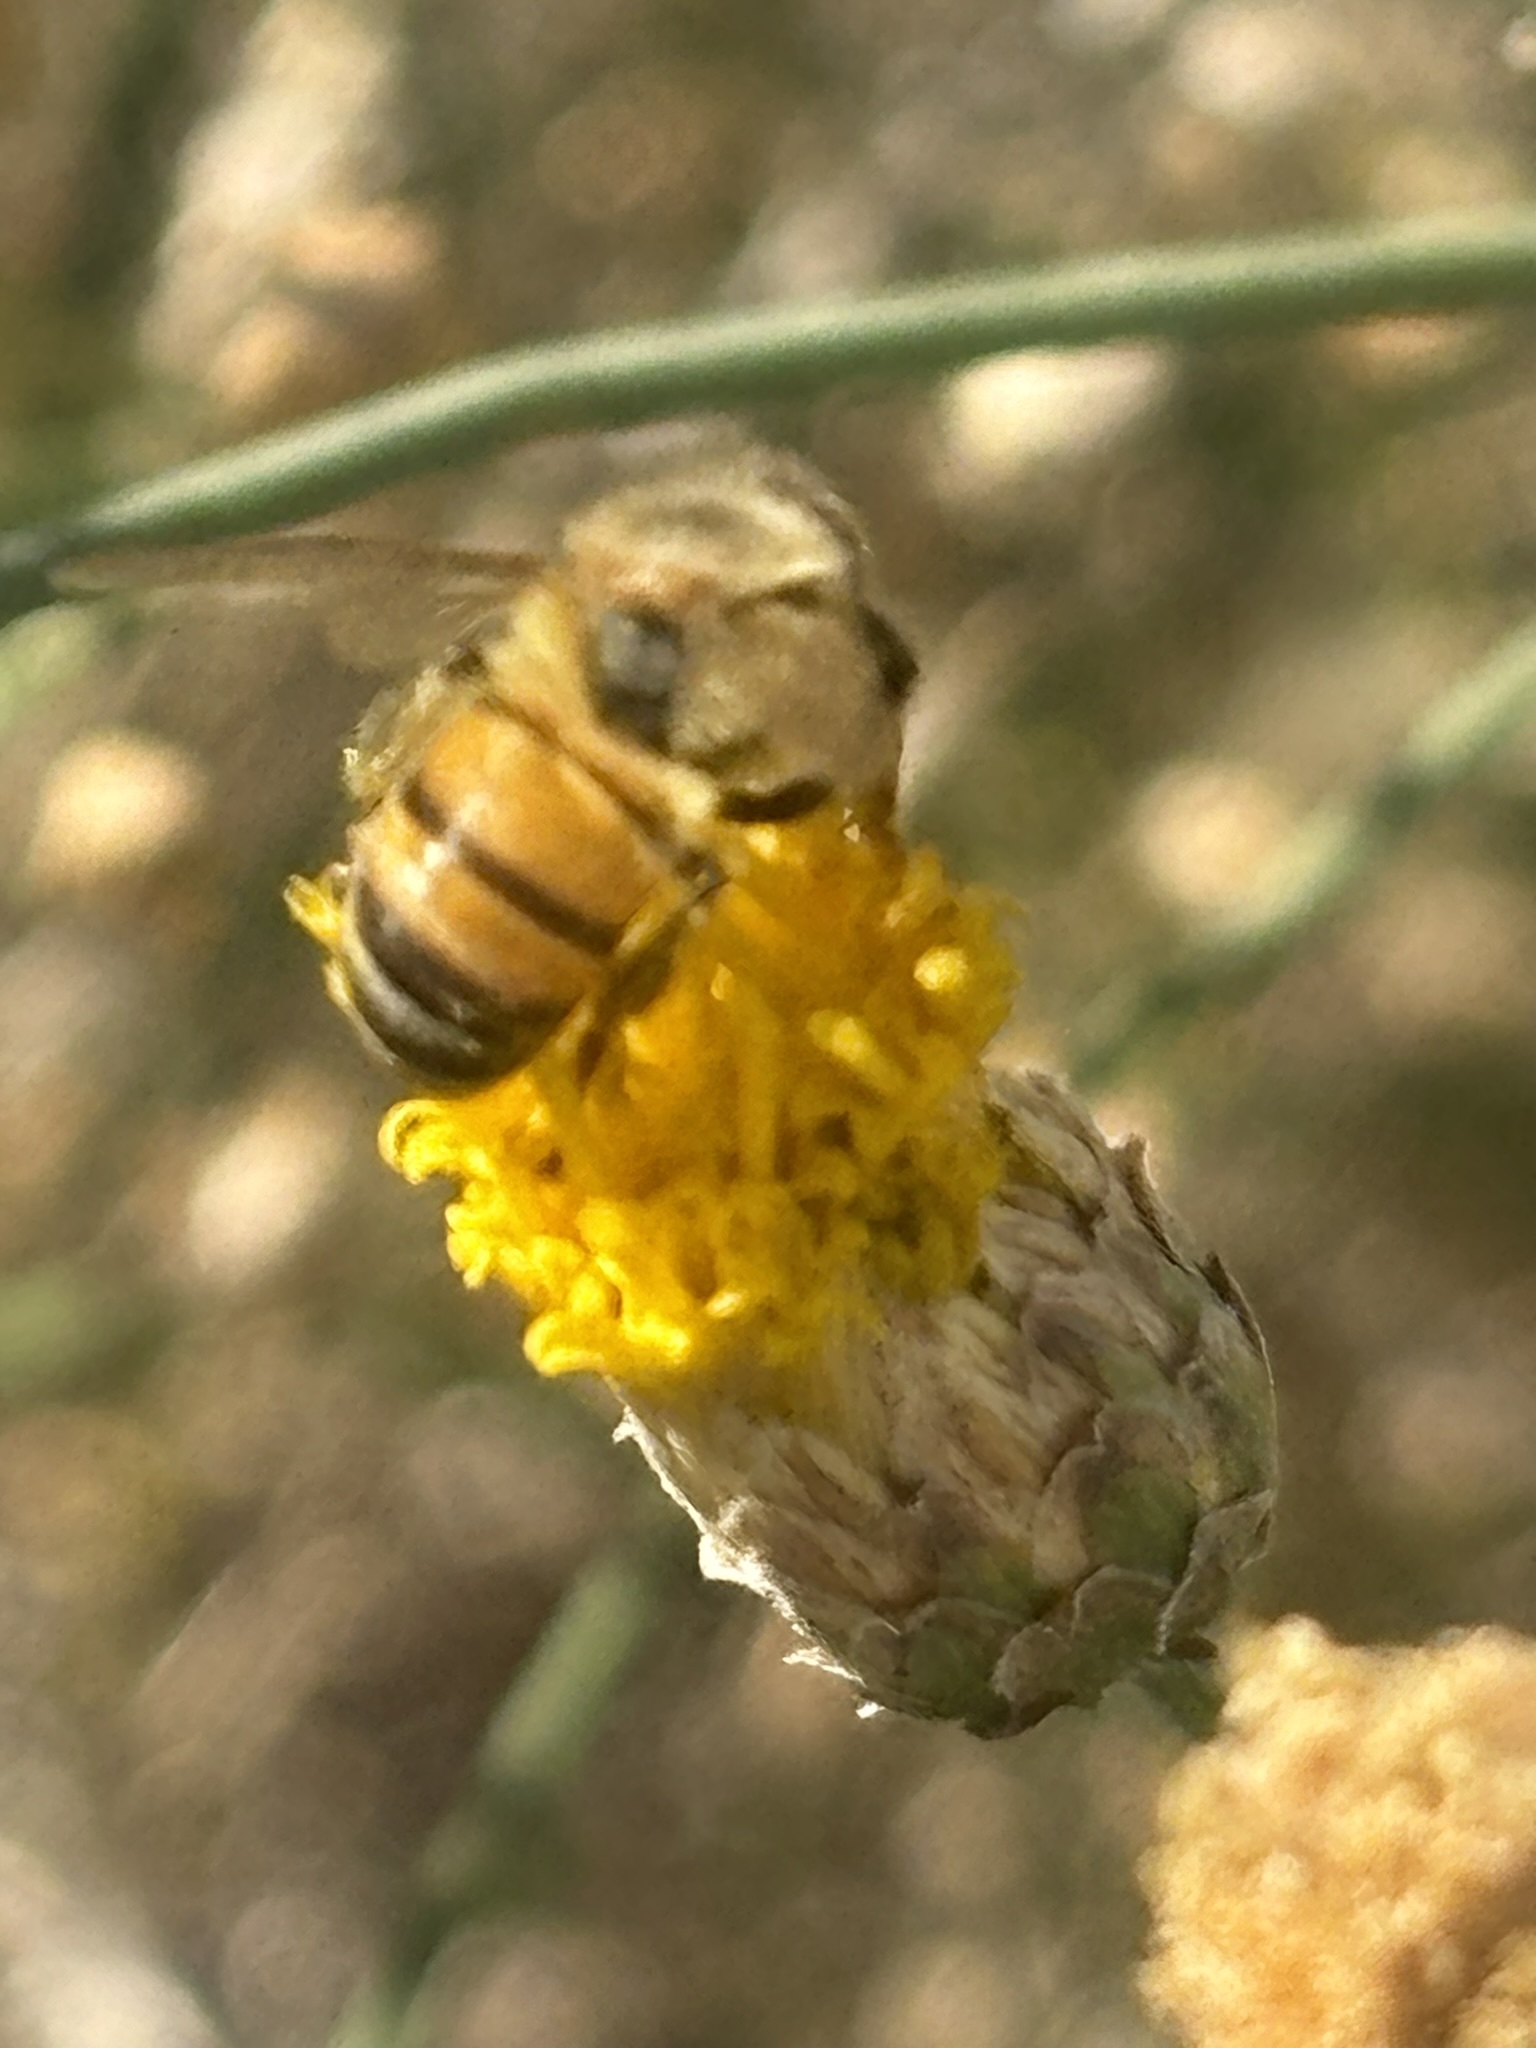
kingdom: Animalia
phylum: Arthropoda
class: Insecta
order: Hymenoptera
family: Apidae
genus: Apis
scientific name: Apis mellifera
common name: Honey bee
